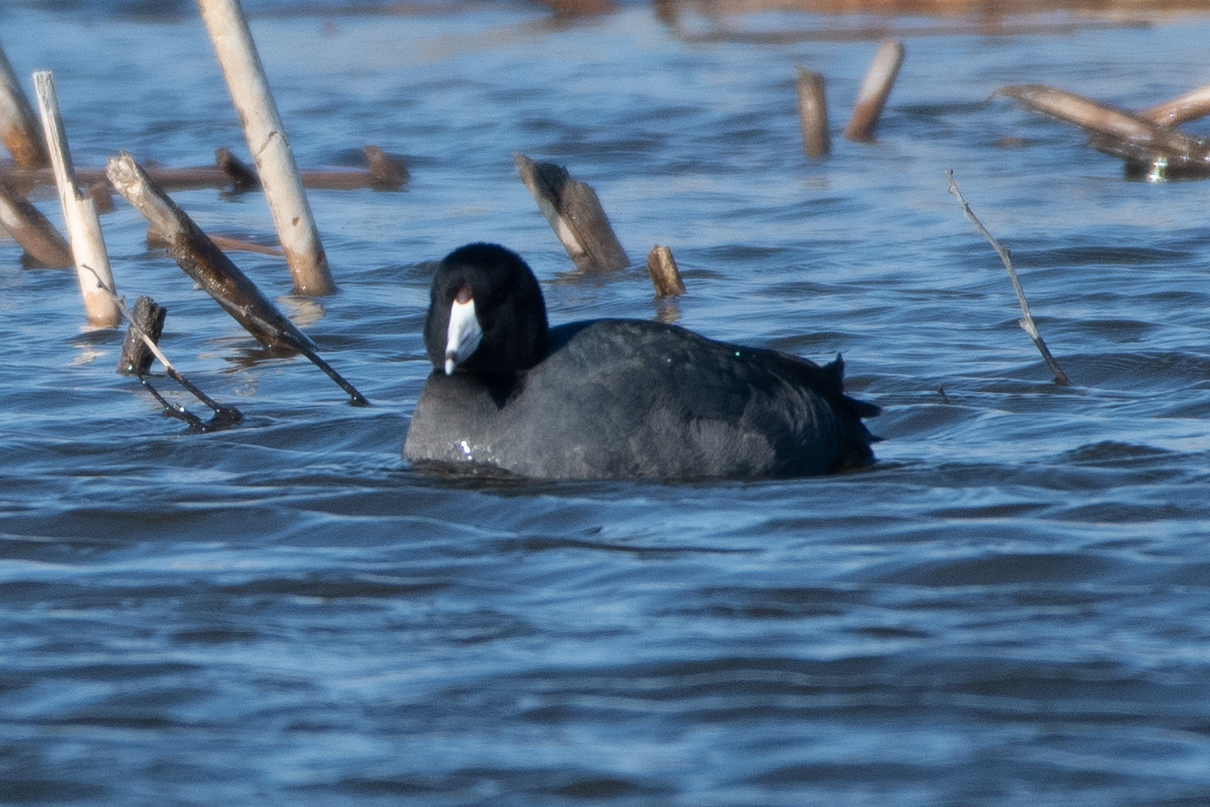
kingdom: Animalia
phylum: Chordata
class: Aves
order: Gruiformes
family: Rallidae
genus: Fulica
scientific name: Fulica americana
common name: American coot
